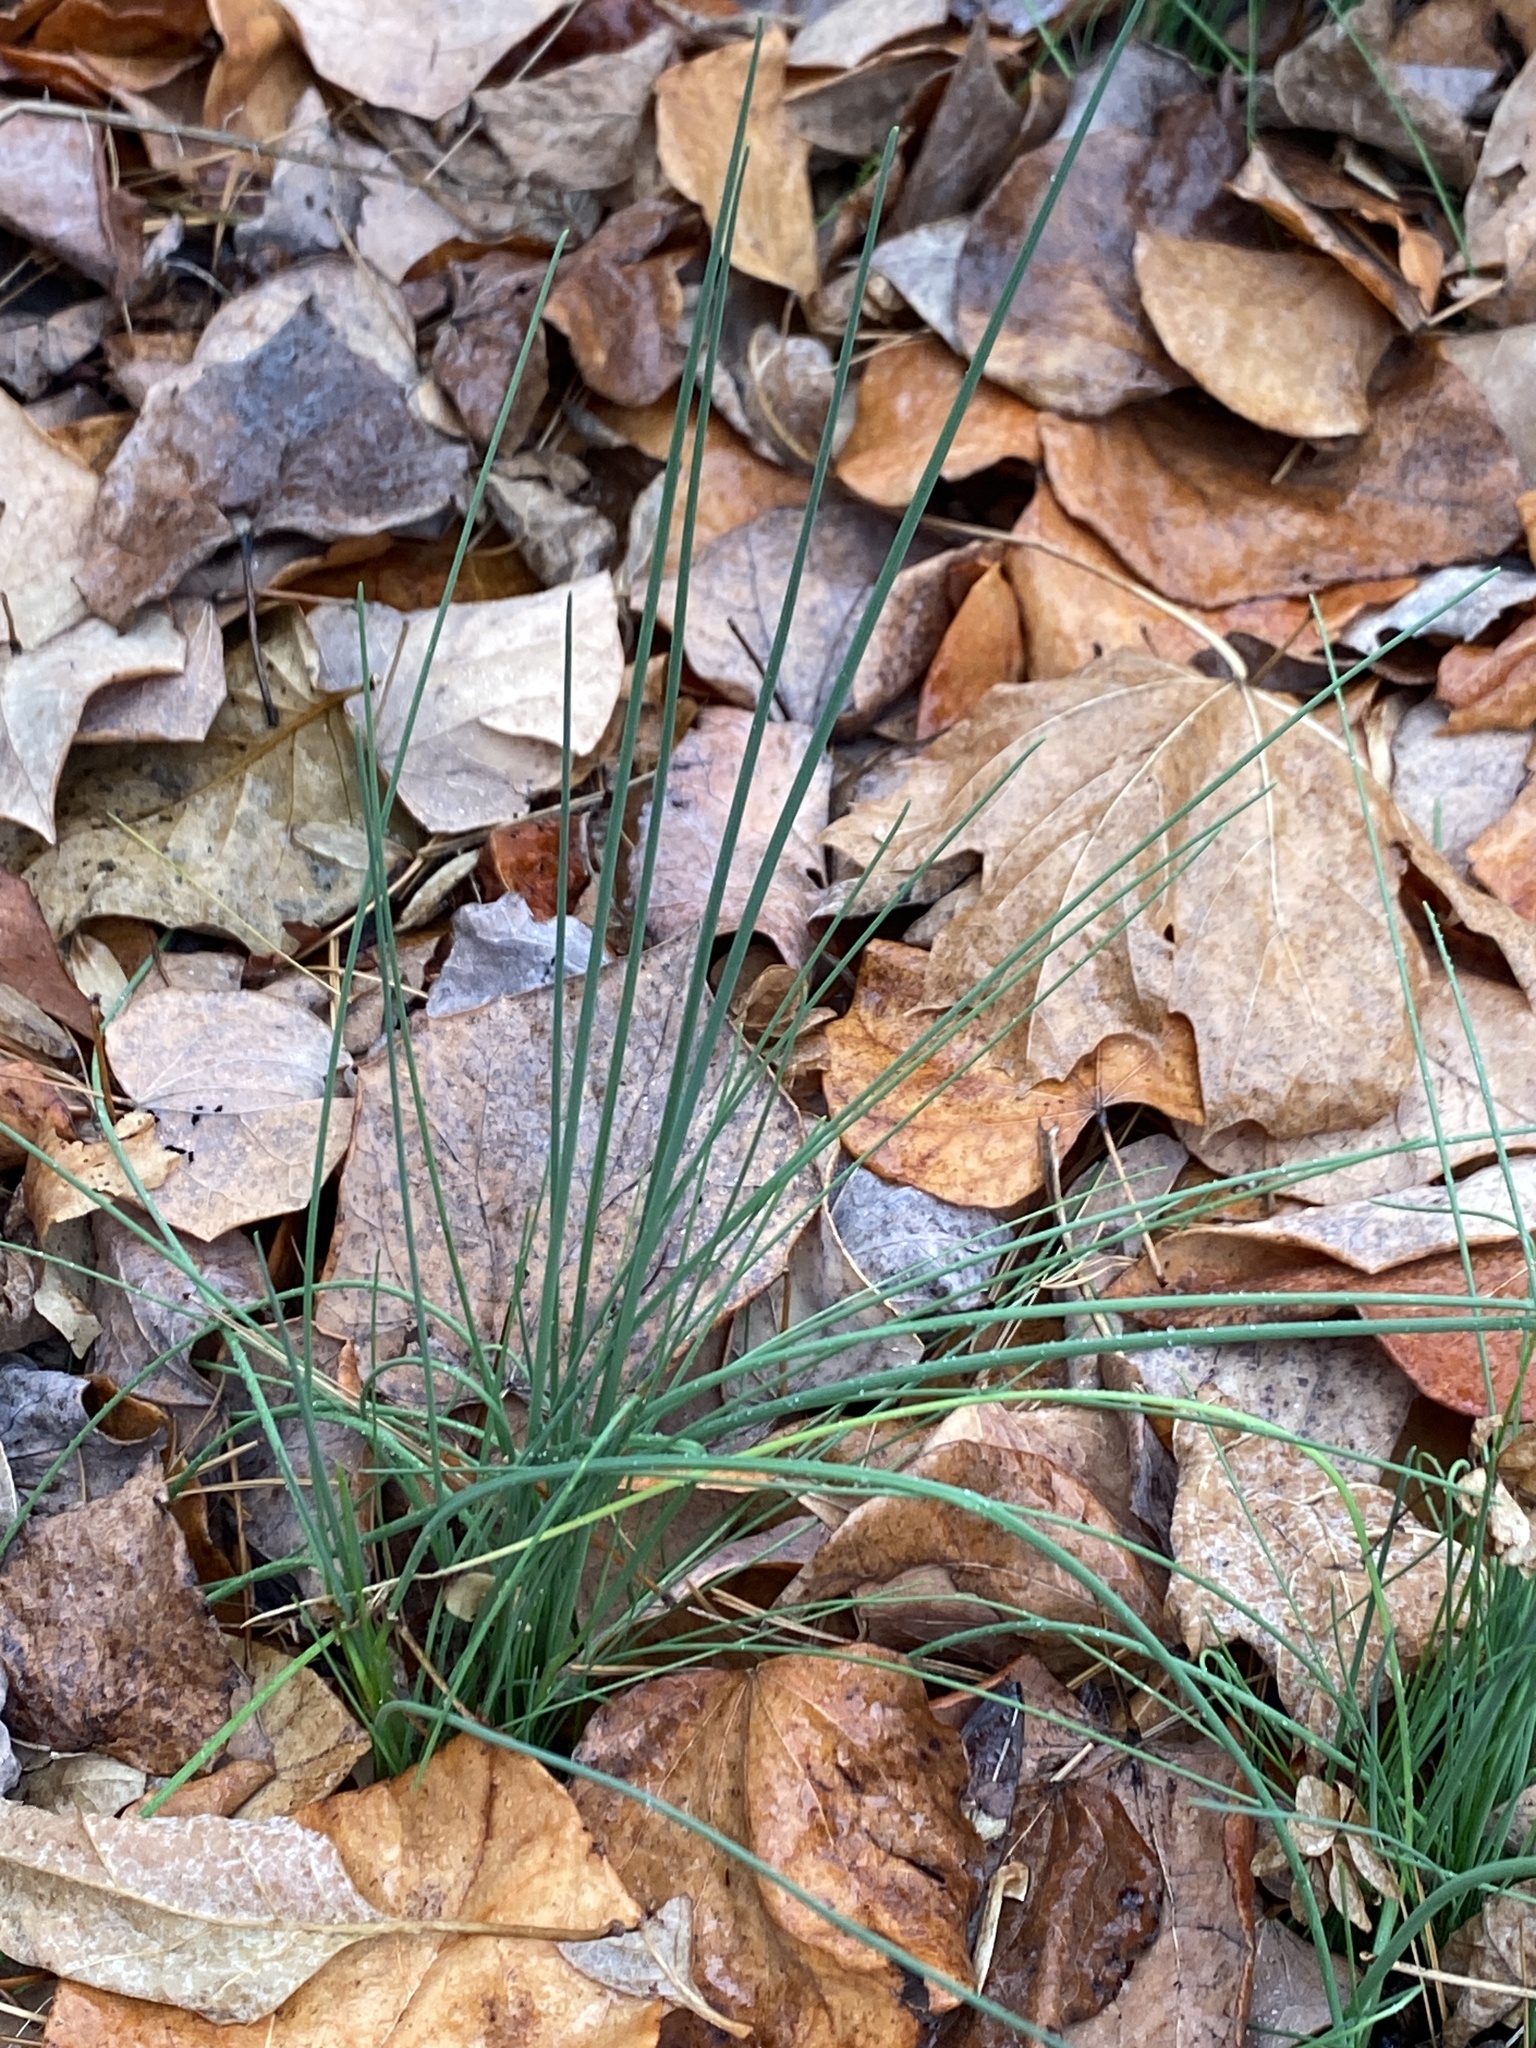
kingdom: Plantae
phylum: Tracheophyta
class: Liliopsida
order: Asparagales
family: Amaryllidaceae
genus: Allium
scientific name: Allium vineale
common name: Crow garlic
